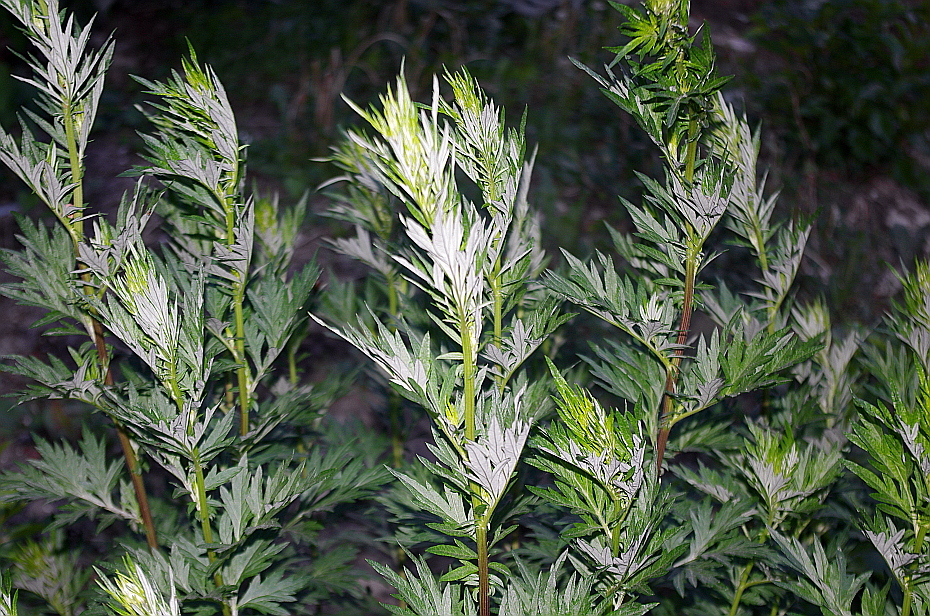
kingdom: Plantae
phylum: Tracheophyta
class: Magnoliopsida
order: Asterales
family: Asteraceae
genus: Artemisia
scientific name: Artemisia vulgaris
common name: Mugwort
